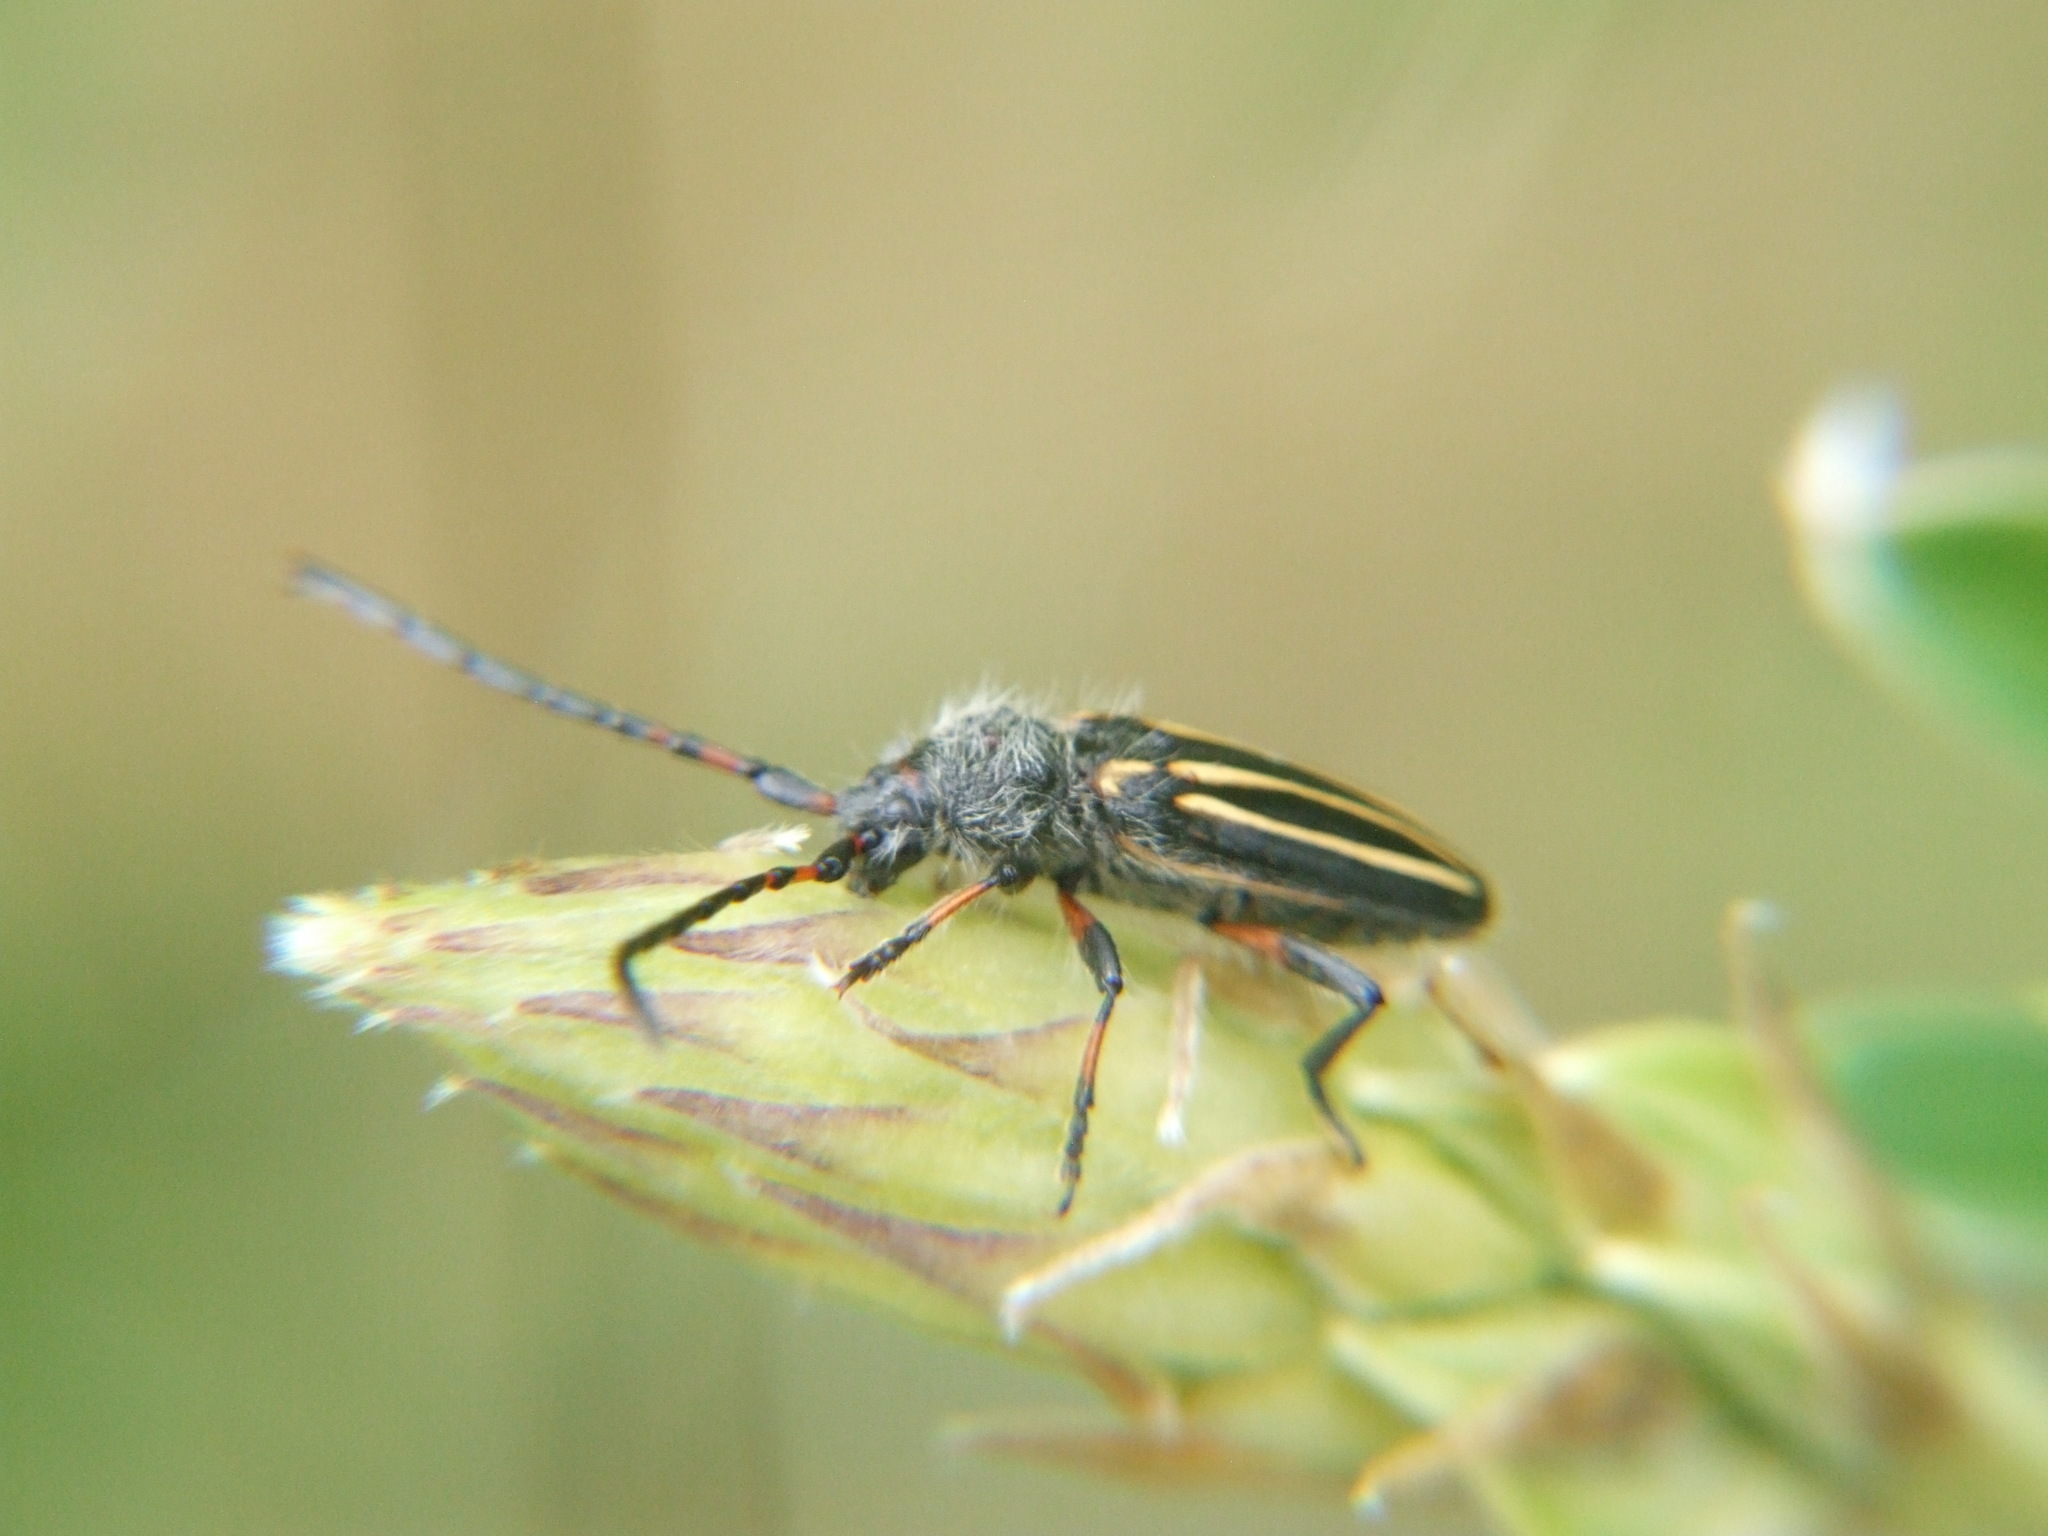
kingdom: Animalia
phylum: Arthropoda
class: Insecta
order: Coleoptera
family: Cerambycidae
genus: Eriocharis
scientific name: Eriocharis devestivus
